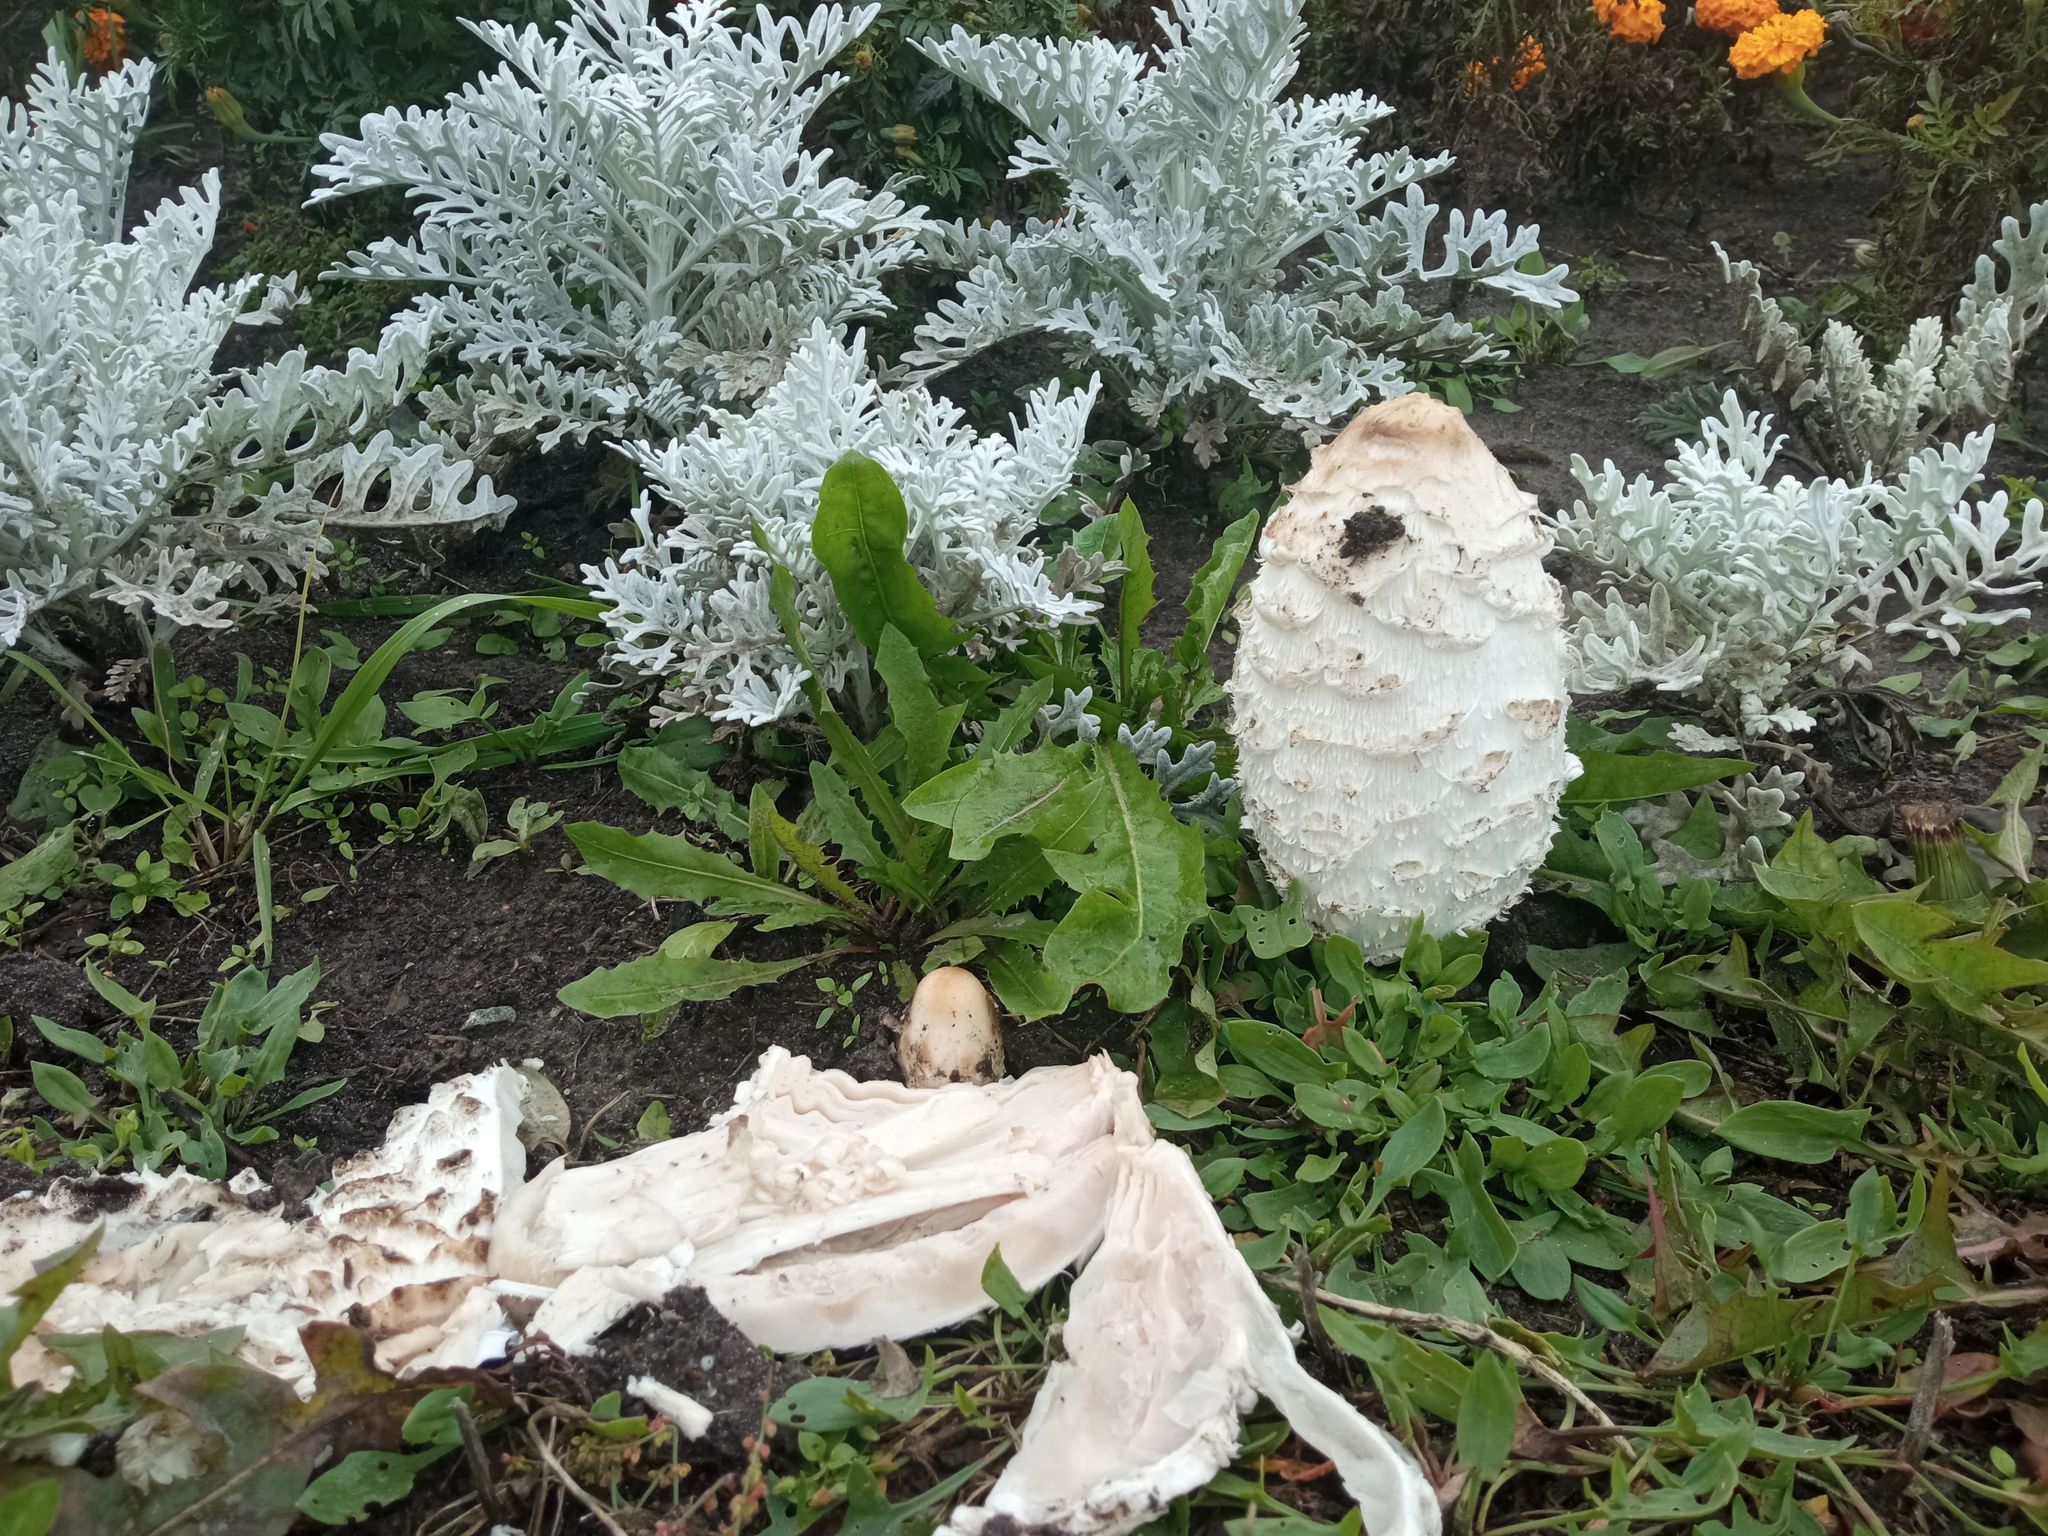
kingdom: Fungi
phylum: Basidiomycota
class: Agaricomycetes
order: Agaricales
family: Agaricaceae
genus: Coprinus
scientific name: Coprinus comatus
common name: Lawyer's wig
